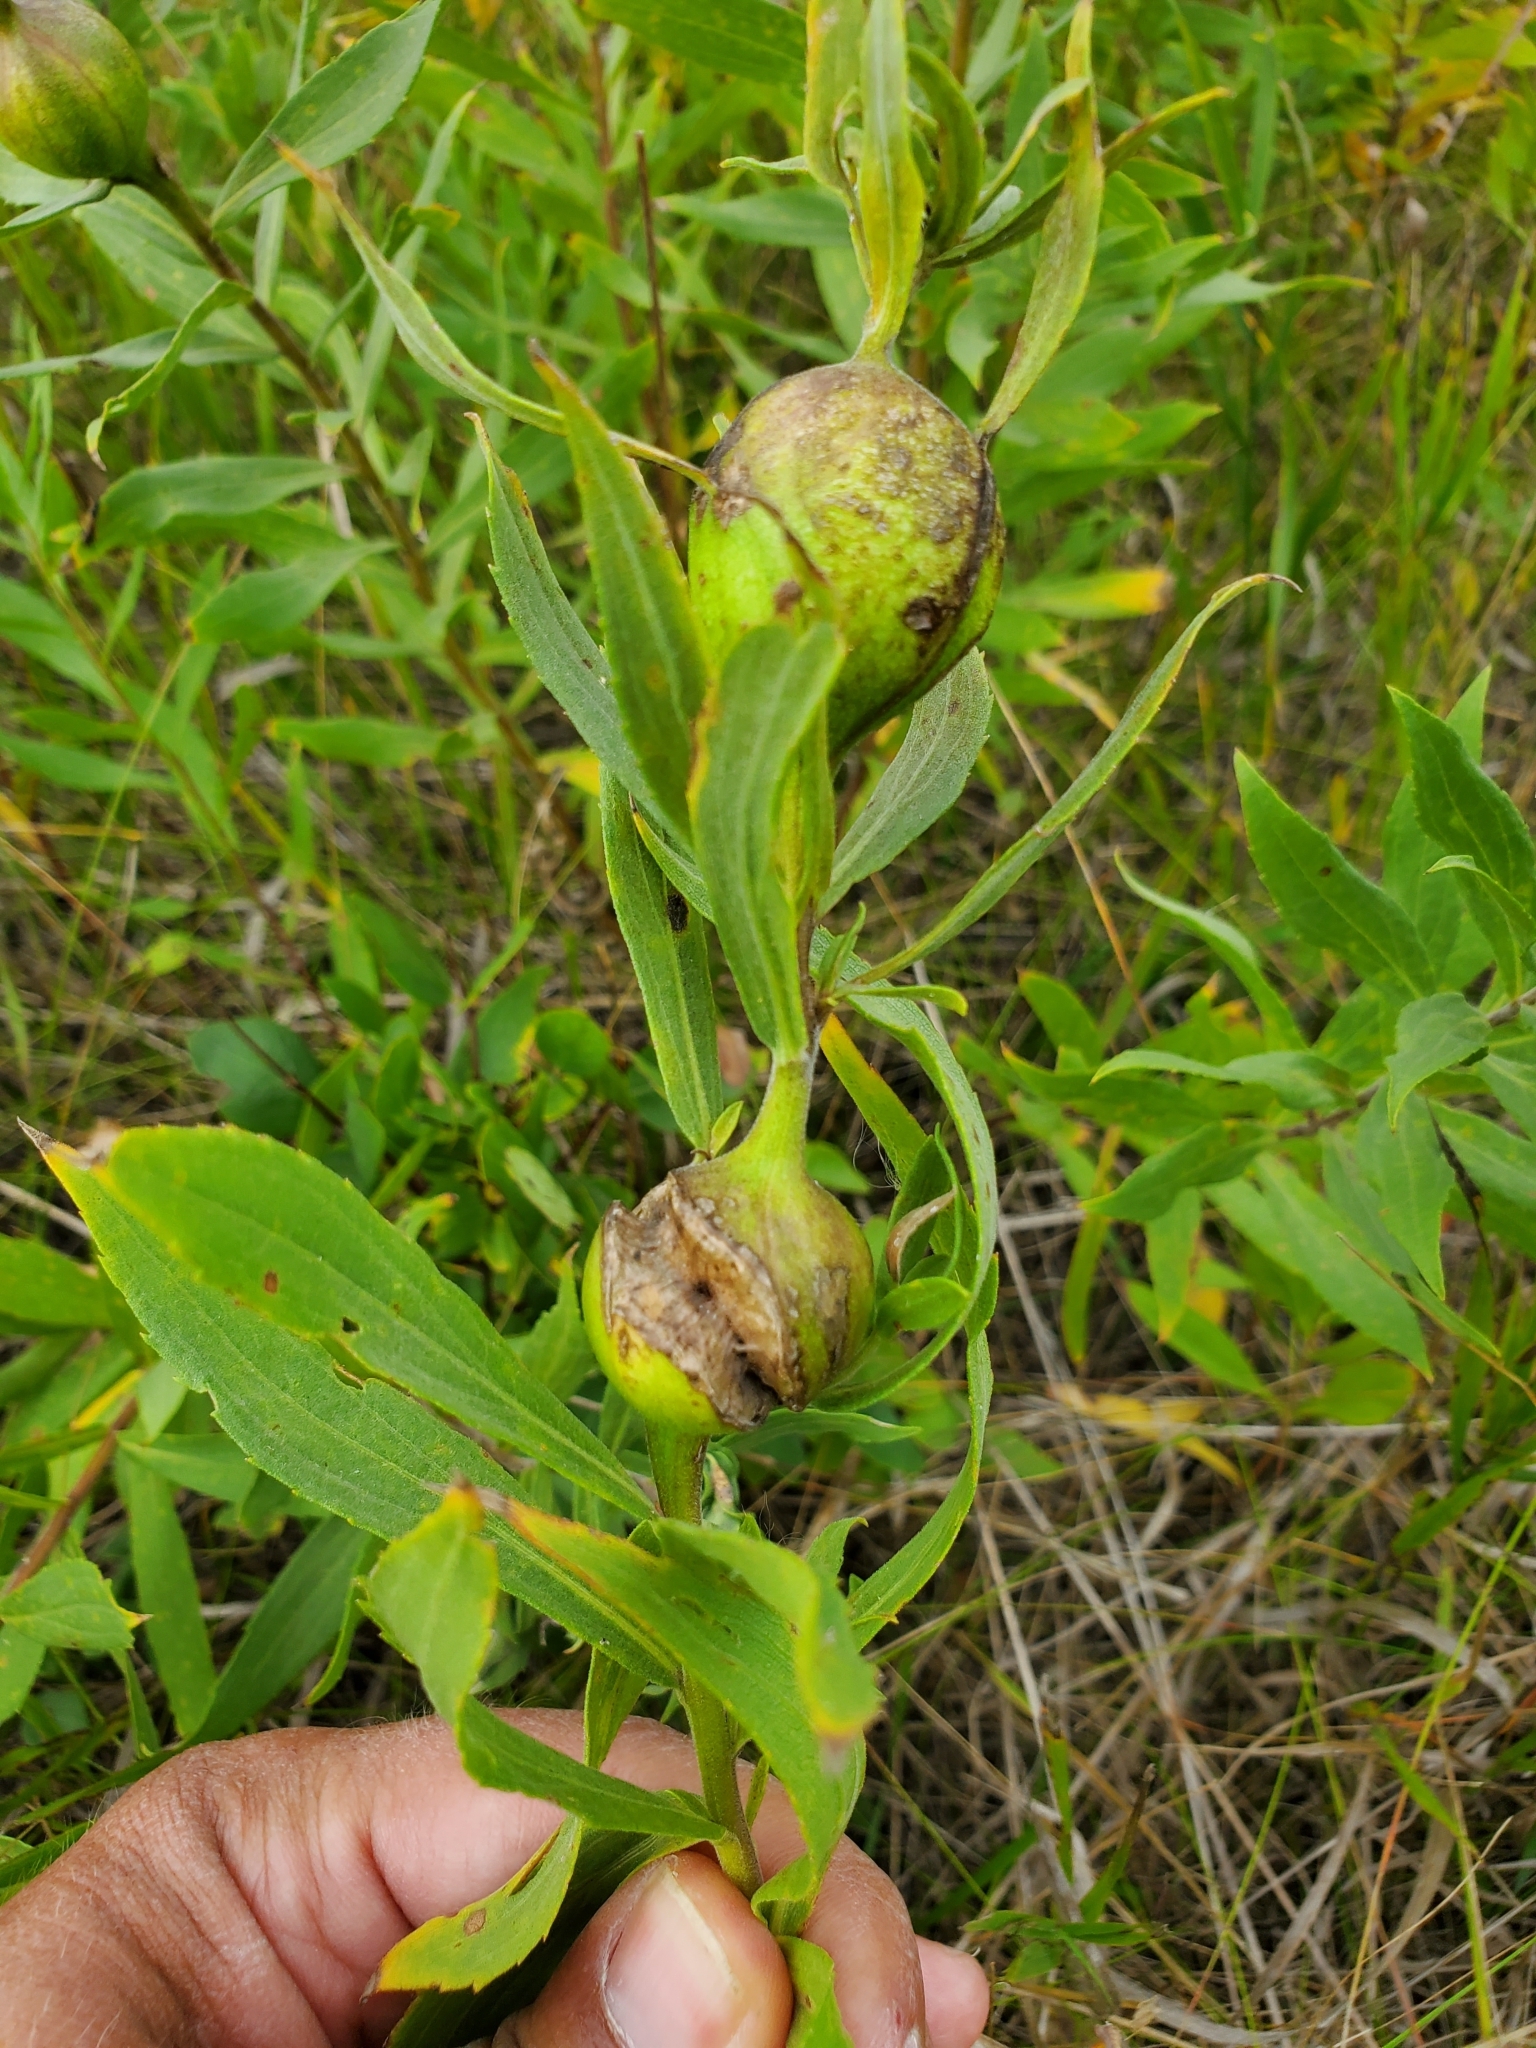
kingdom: Animalia
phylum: Arthropoda
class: Insecta
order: Diptera
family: Tephritidae
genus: Eurosta
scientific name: Eurosta solidaginis
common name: Goldenrod gall fly
